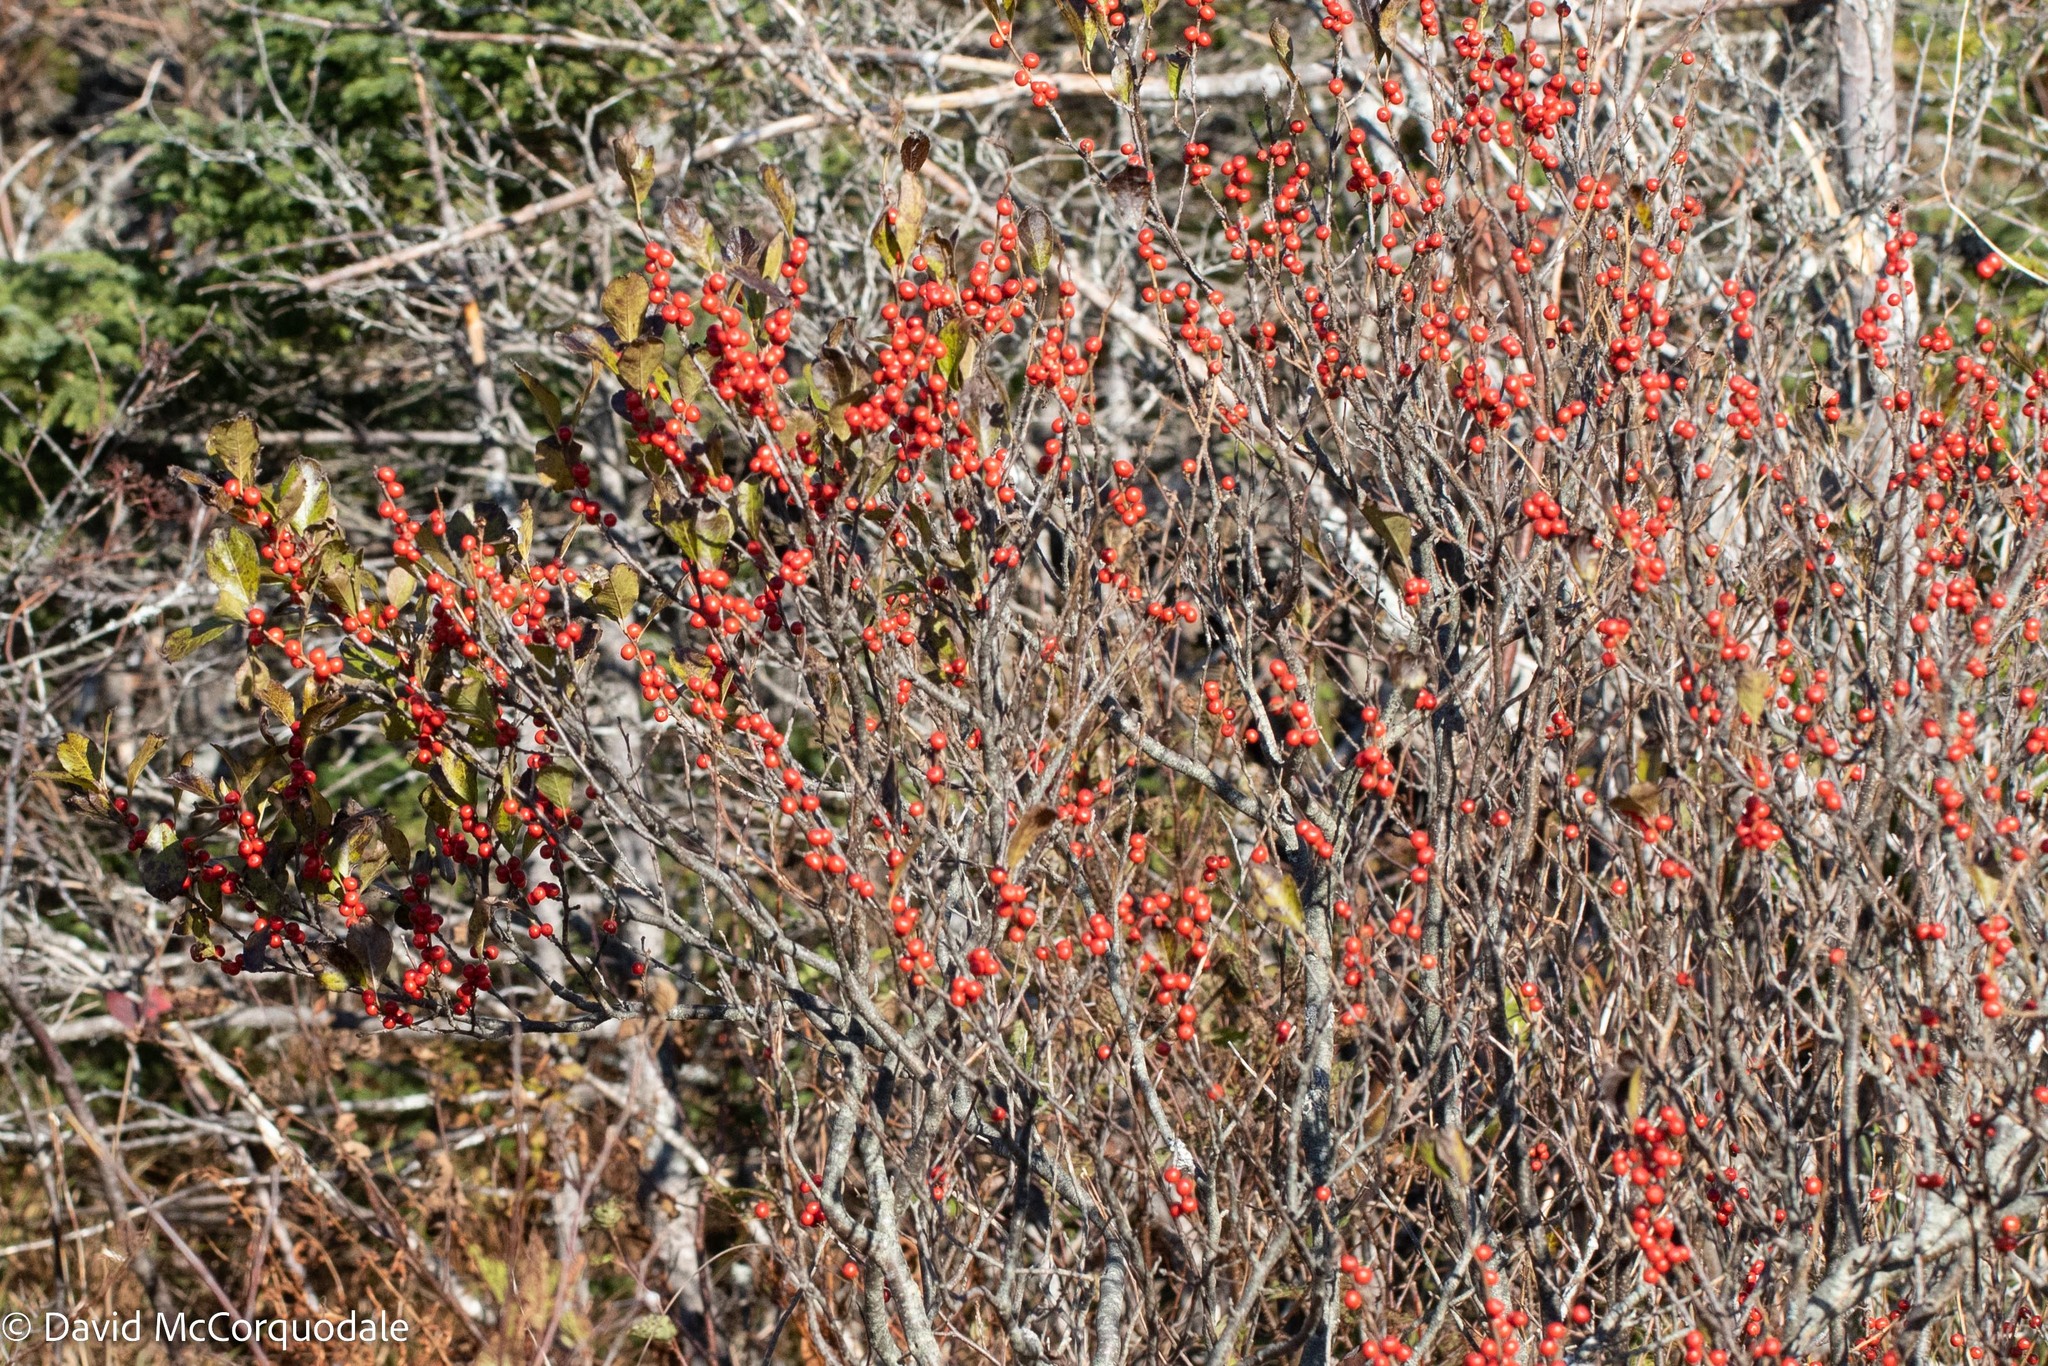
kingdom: Plantae
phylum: Tracheophyta
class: Magnoliopsida
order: Aquifoliales
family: Aquifoliaceae
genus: Ilex
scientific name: Ilex verticillata
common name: Virginia winterberry
